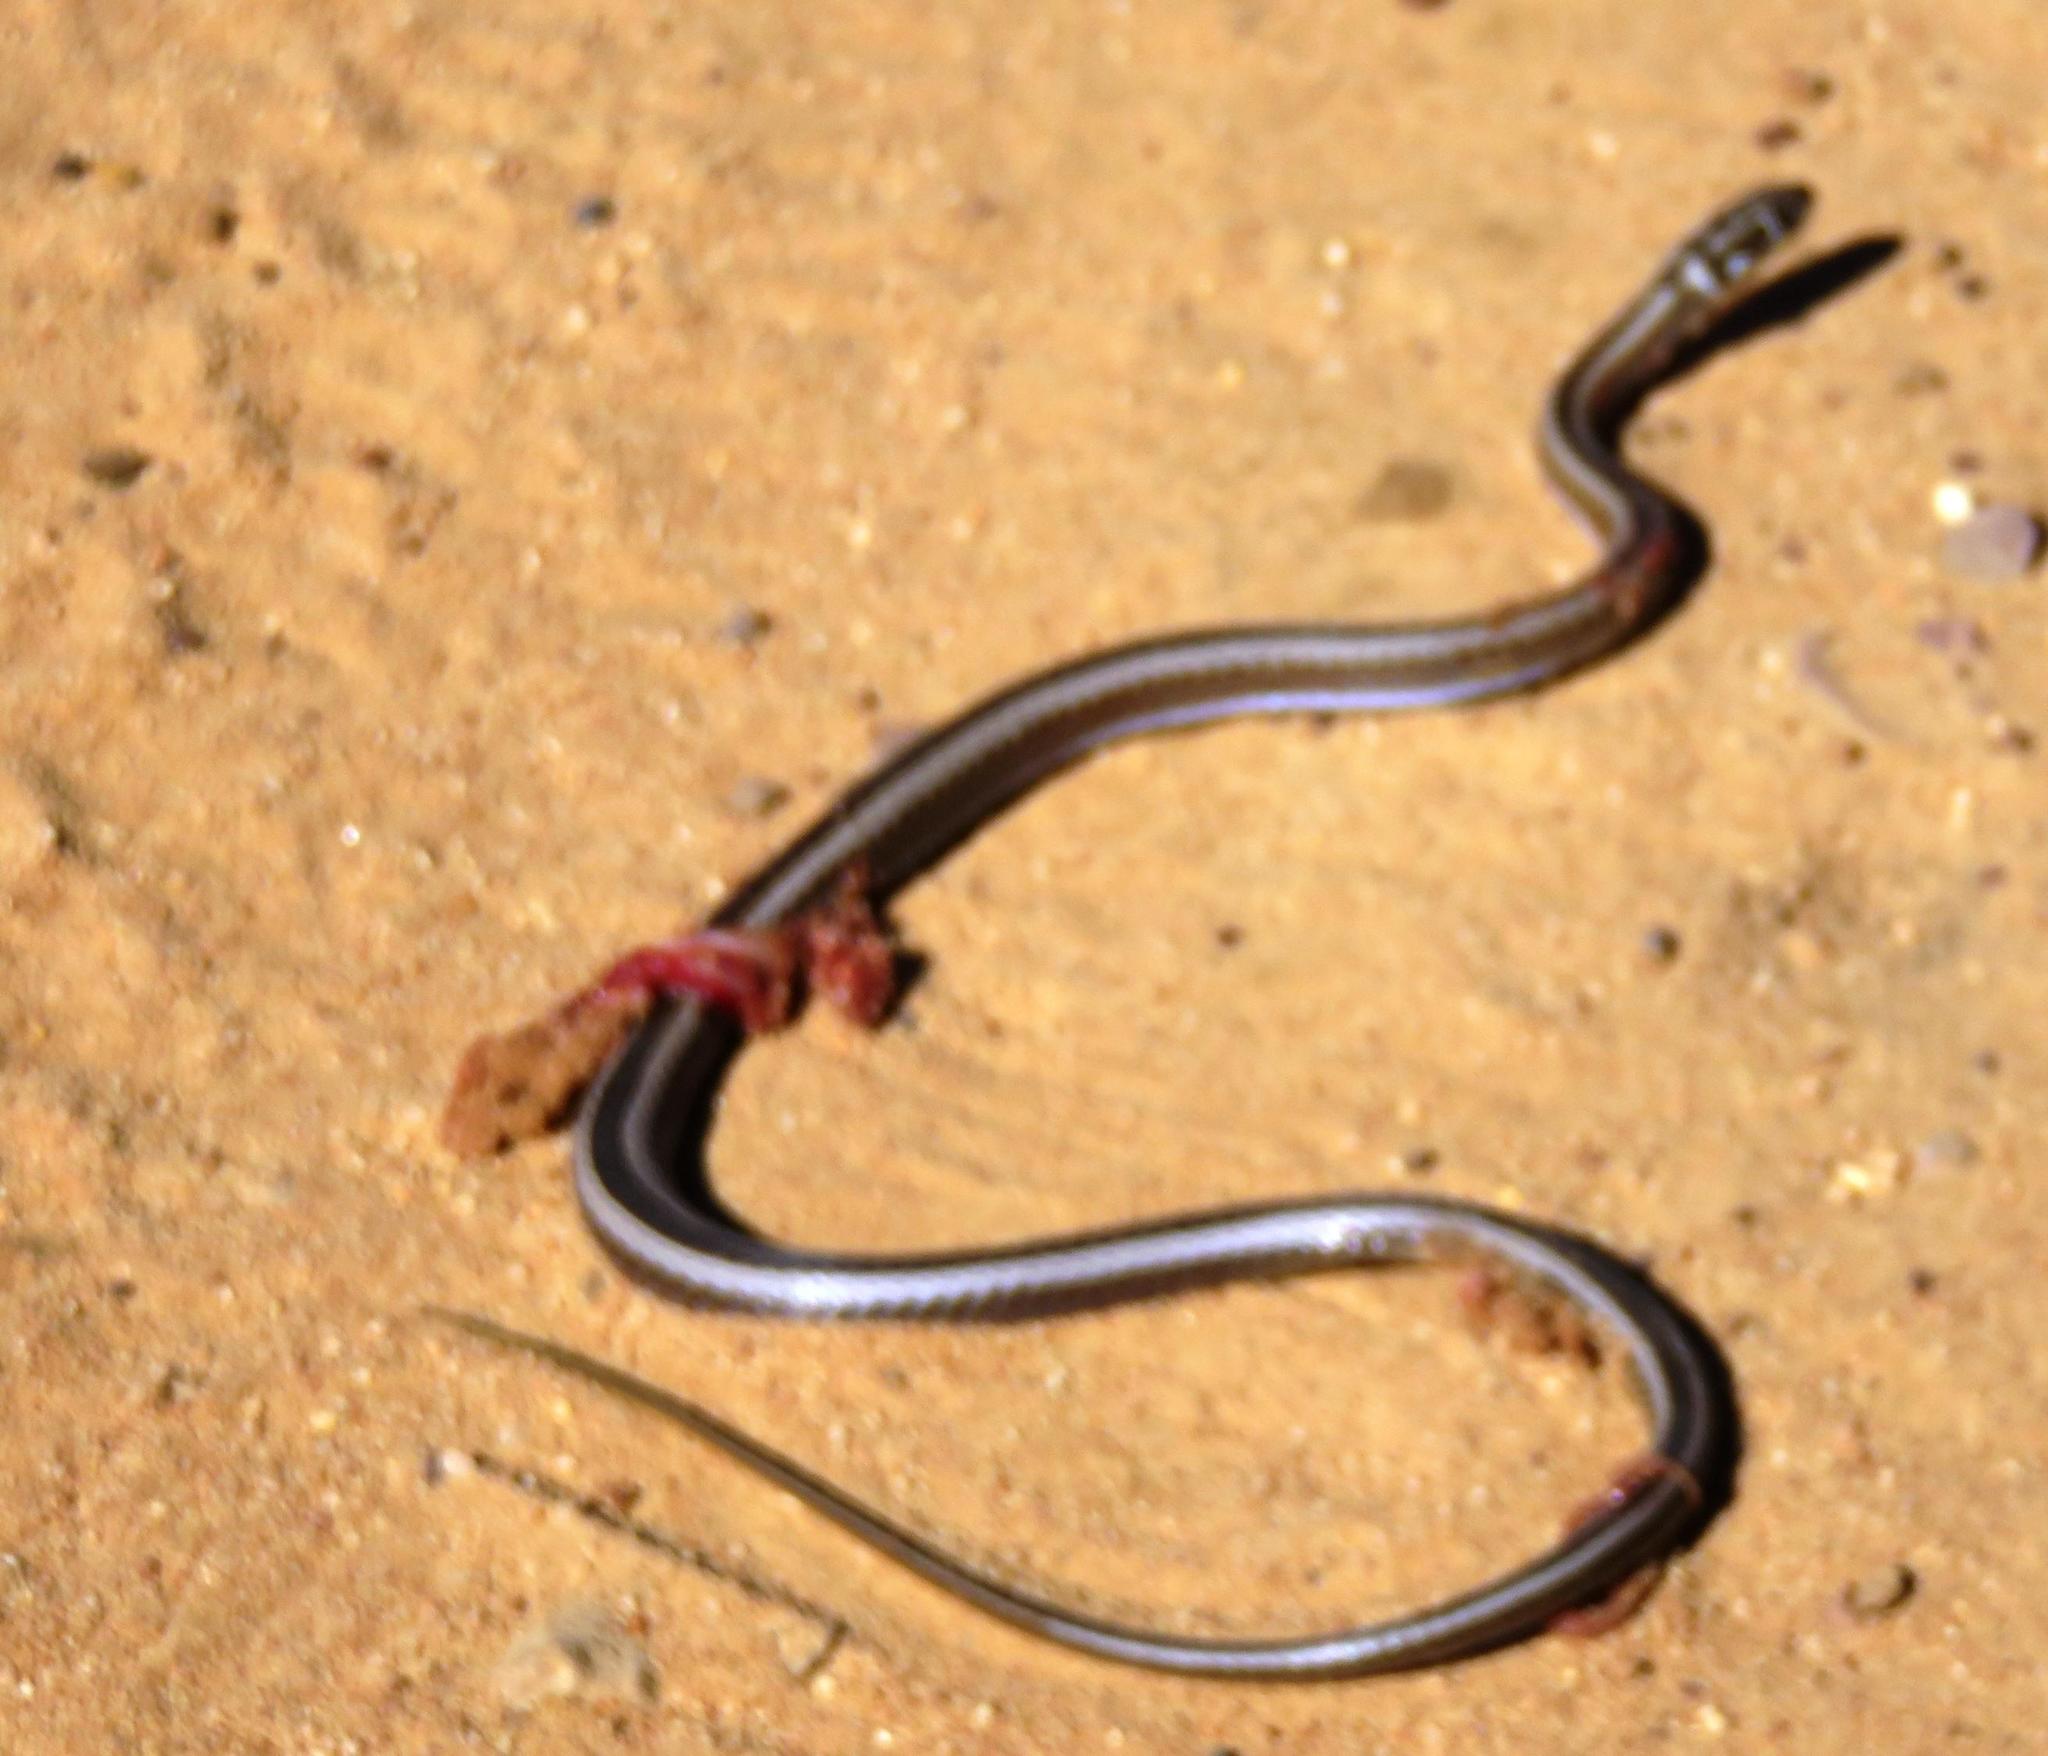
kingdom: Animalia
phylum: Chordata
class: Squamata
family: Psammophiidae
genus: Psammophis
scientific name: Psammophis crucifer
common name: Cross-marked grass snake
